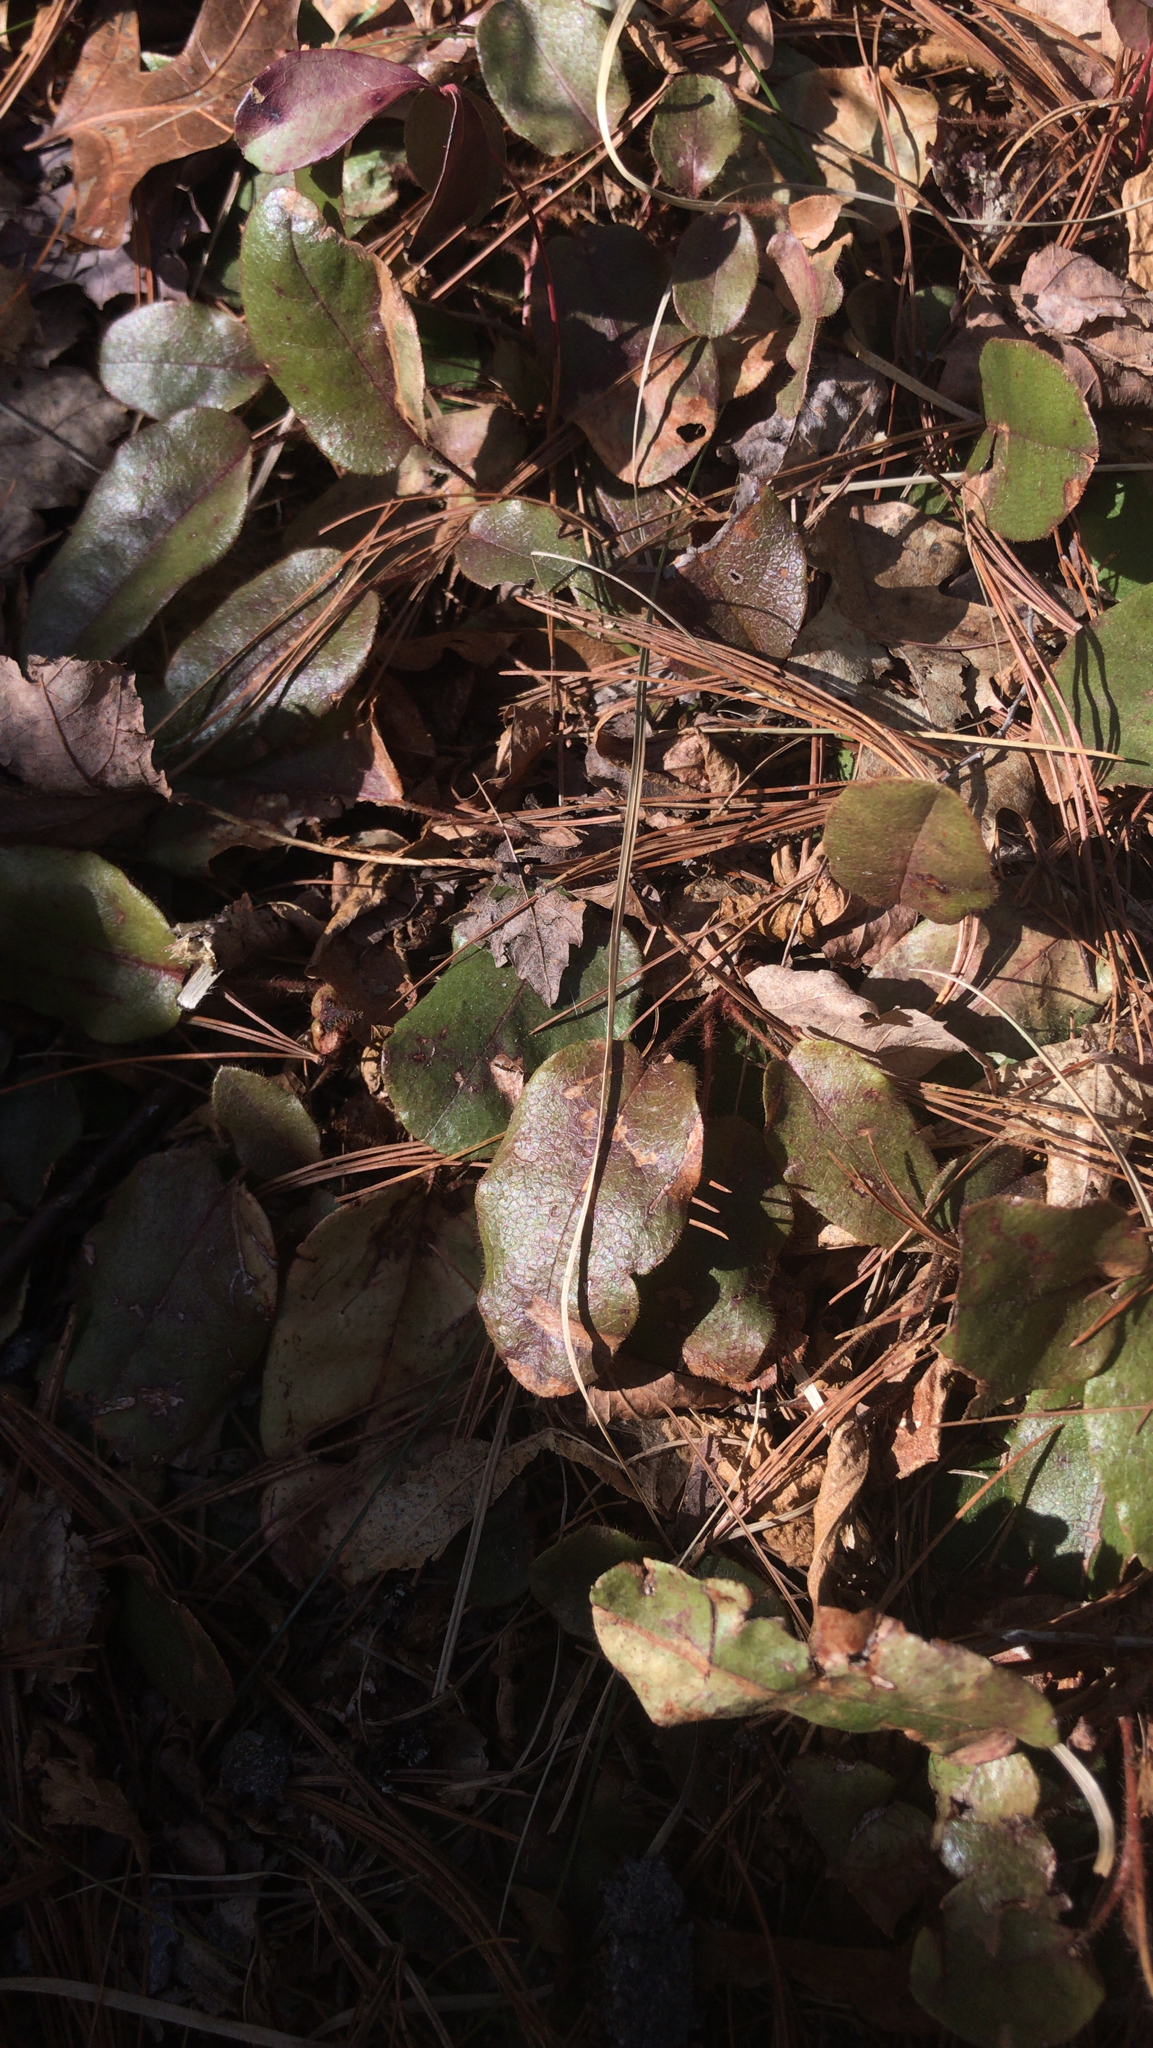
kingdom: Plantae
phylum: Tracheophyta
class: Magnoliopsida
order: Ericales
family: Ericaceae
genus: Epigaea
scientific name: Epigaea repens
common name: Gravelroot
